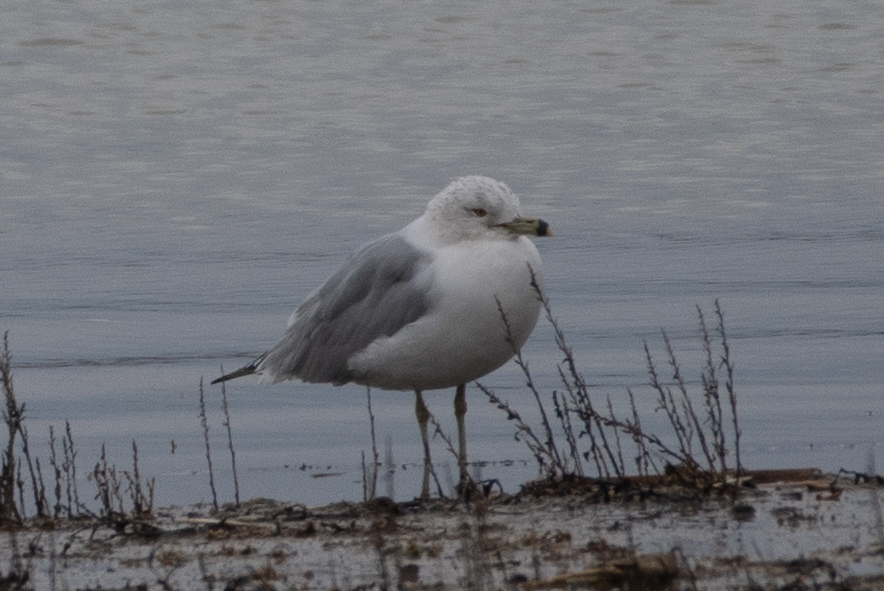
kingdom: Animalia
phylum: Chordata
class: Aves
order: Charadriiformes
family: Laridae
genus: Larus
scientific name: Larus delawarensis
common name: Ring-billed gull
